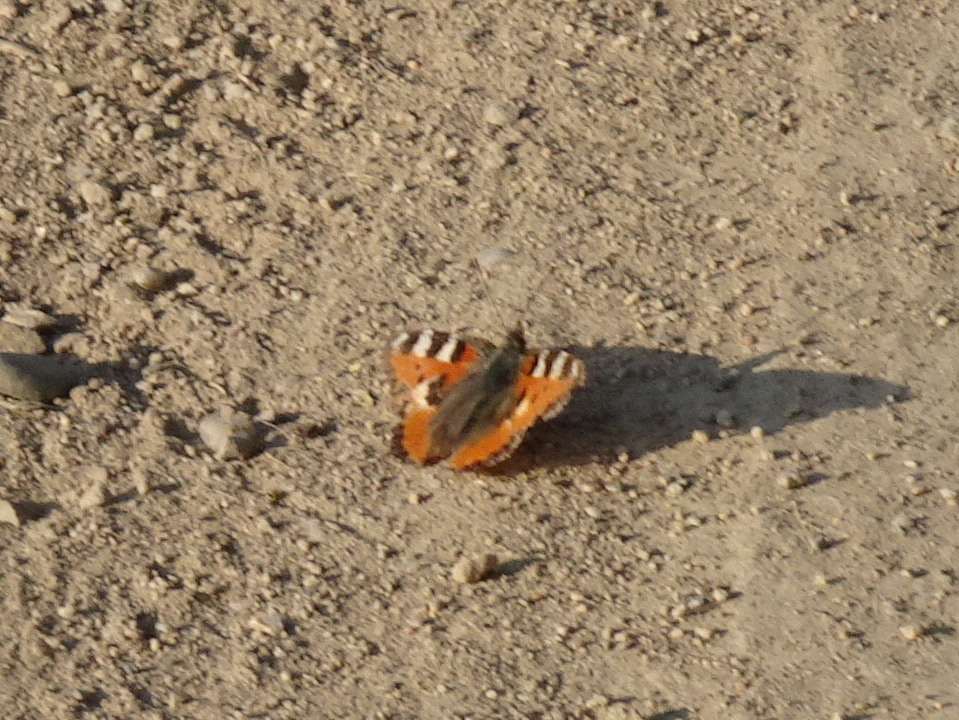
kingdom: Animalia
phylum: Arthropoda
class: Insecta
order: Lepidoptera
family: Nymphalidae
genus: Aglais
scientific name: Aglais urticae
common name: Small tortoiseshell
